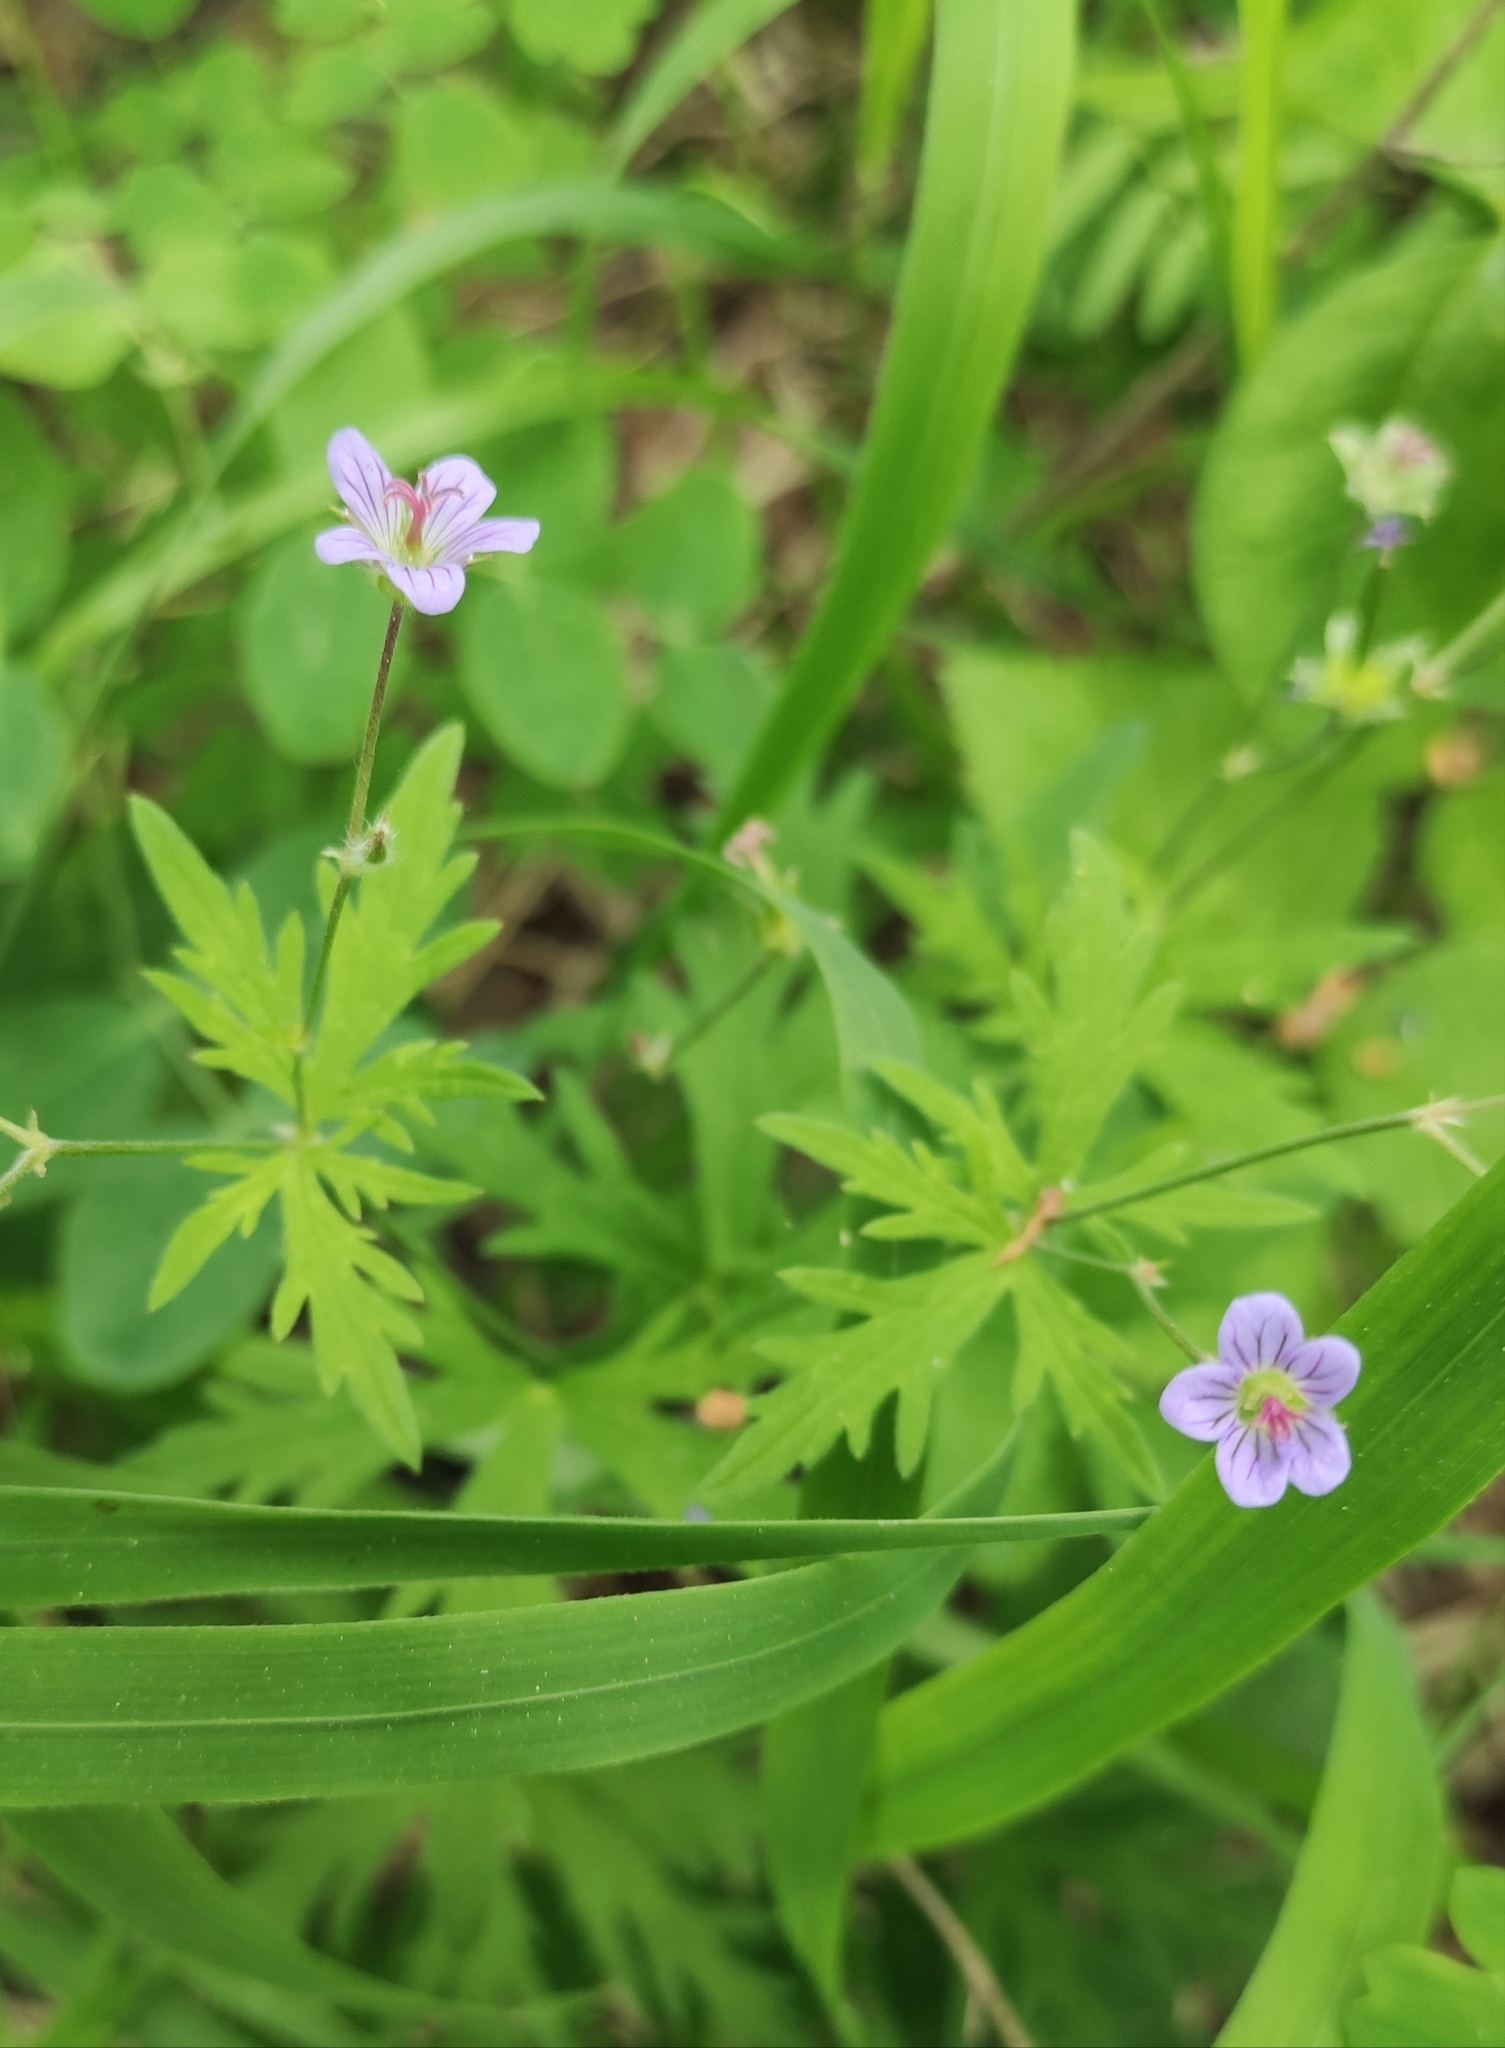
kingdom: Plantae
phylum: Tracheophyta
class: Magnoliopsida
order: Geraniales
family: Geraniaceae
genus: Geranium
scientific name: Geranium pseudosibiricum
